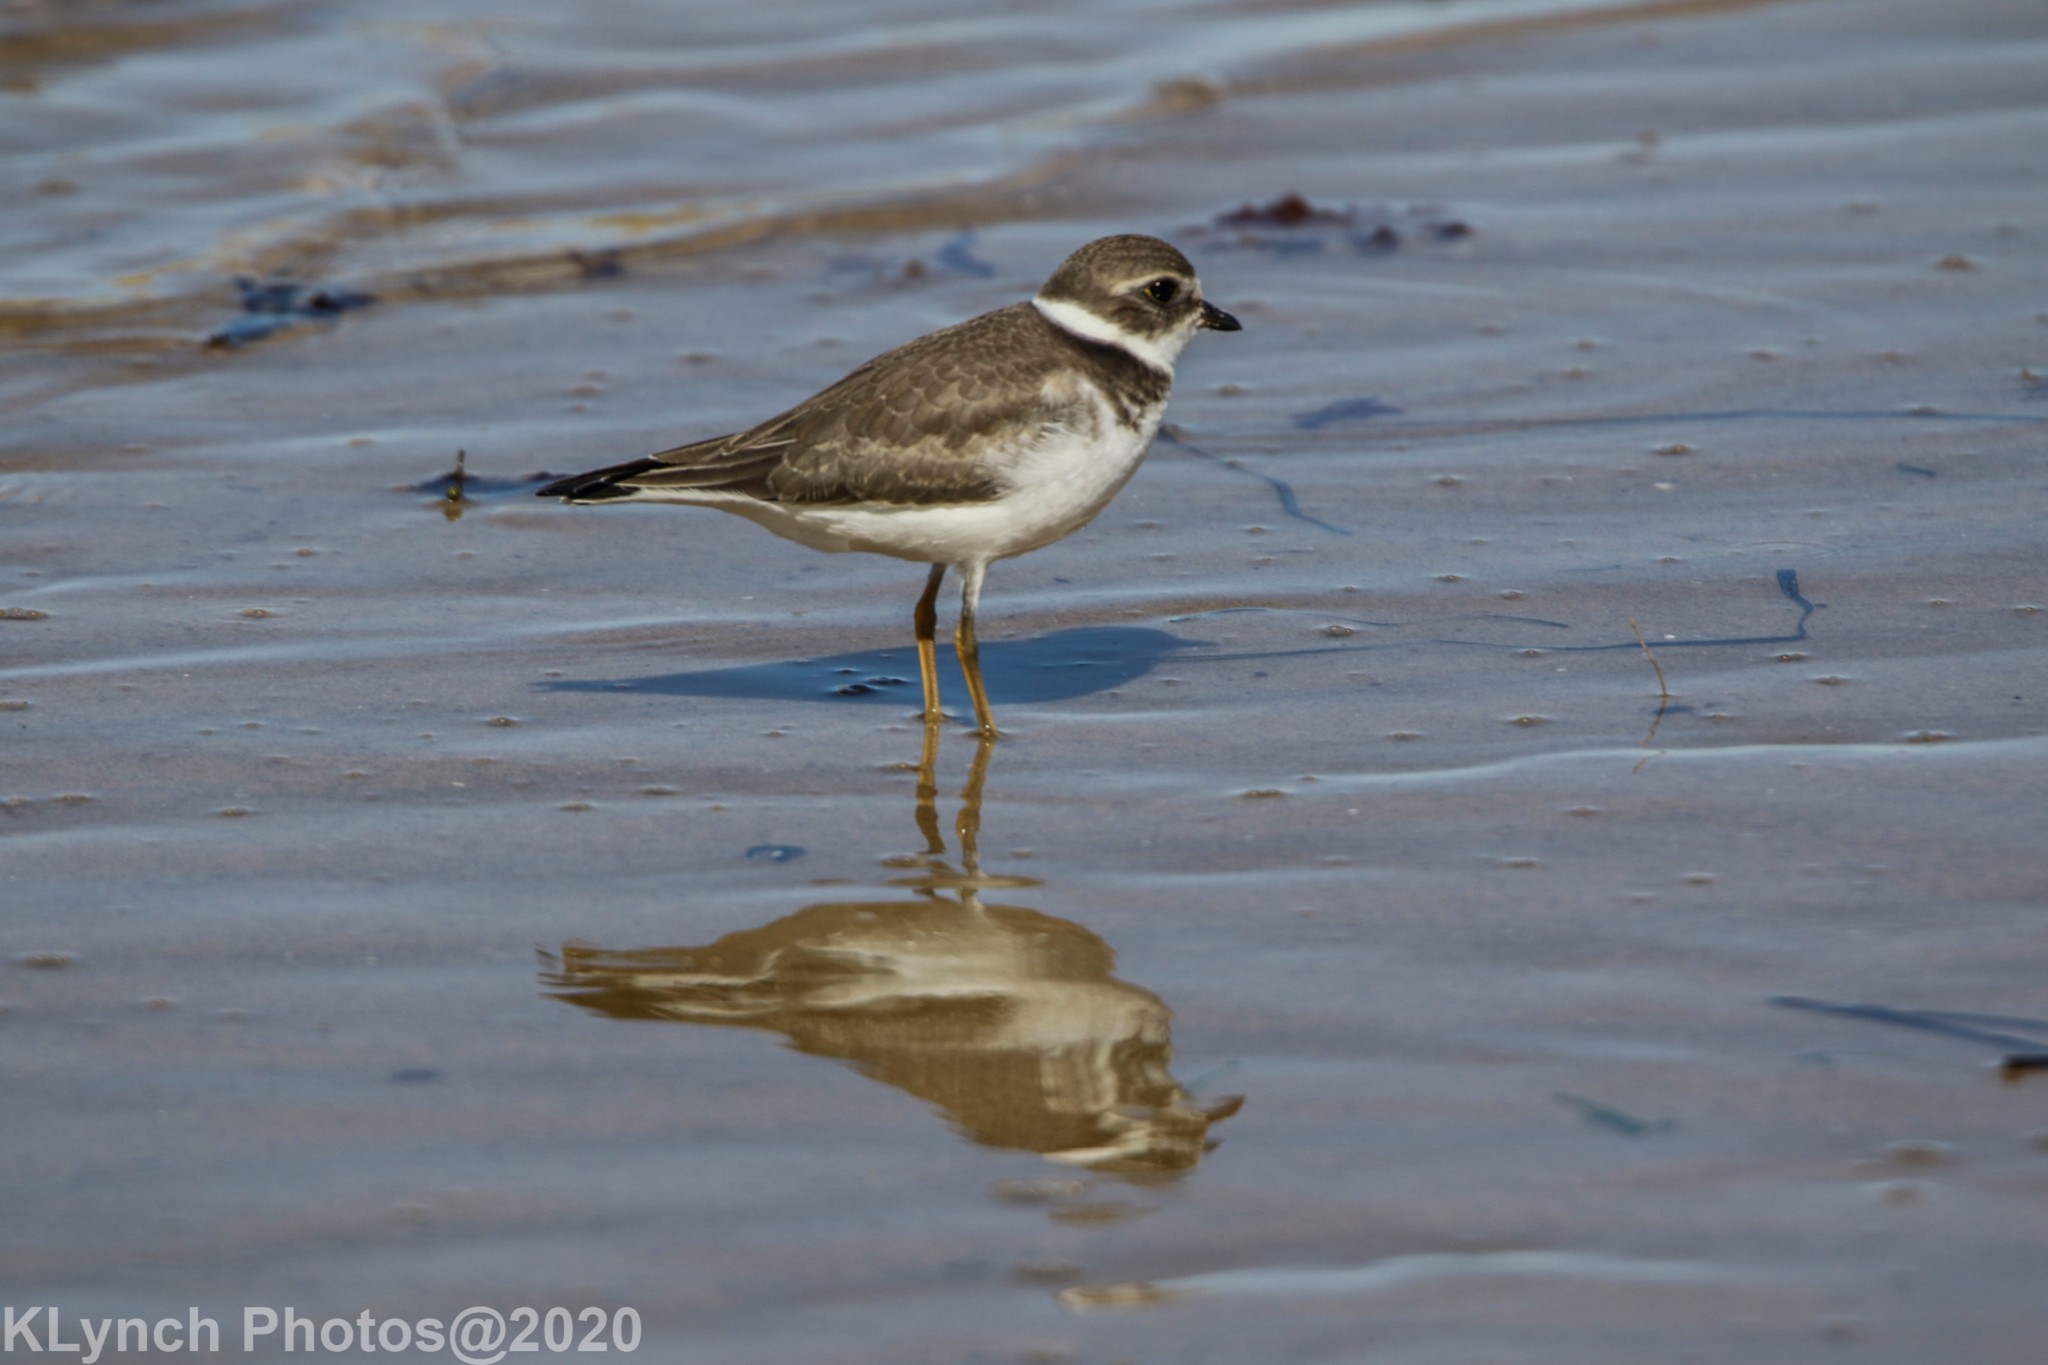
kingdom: Animalia
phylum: Chordata
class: Aves
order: Charadriiformes
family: Charadriidae
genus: Charadrius
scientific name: Charadrius semipalmatus
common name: Semipalmated plover
